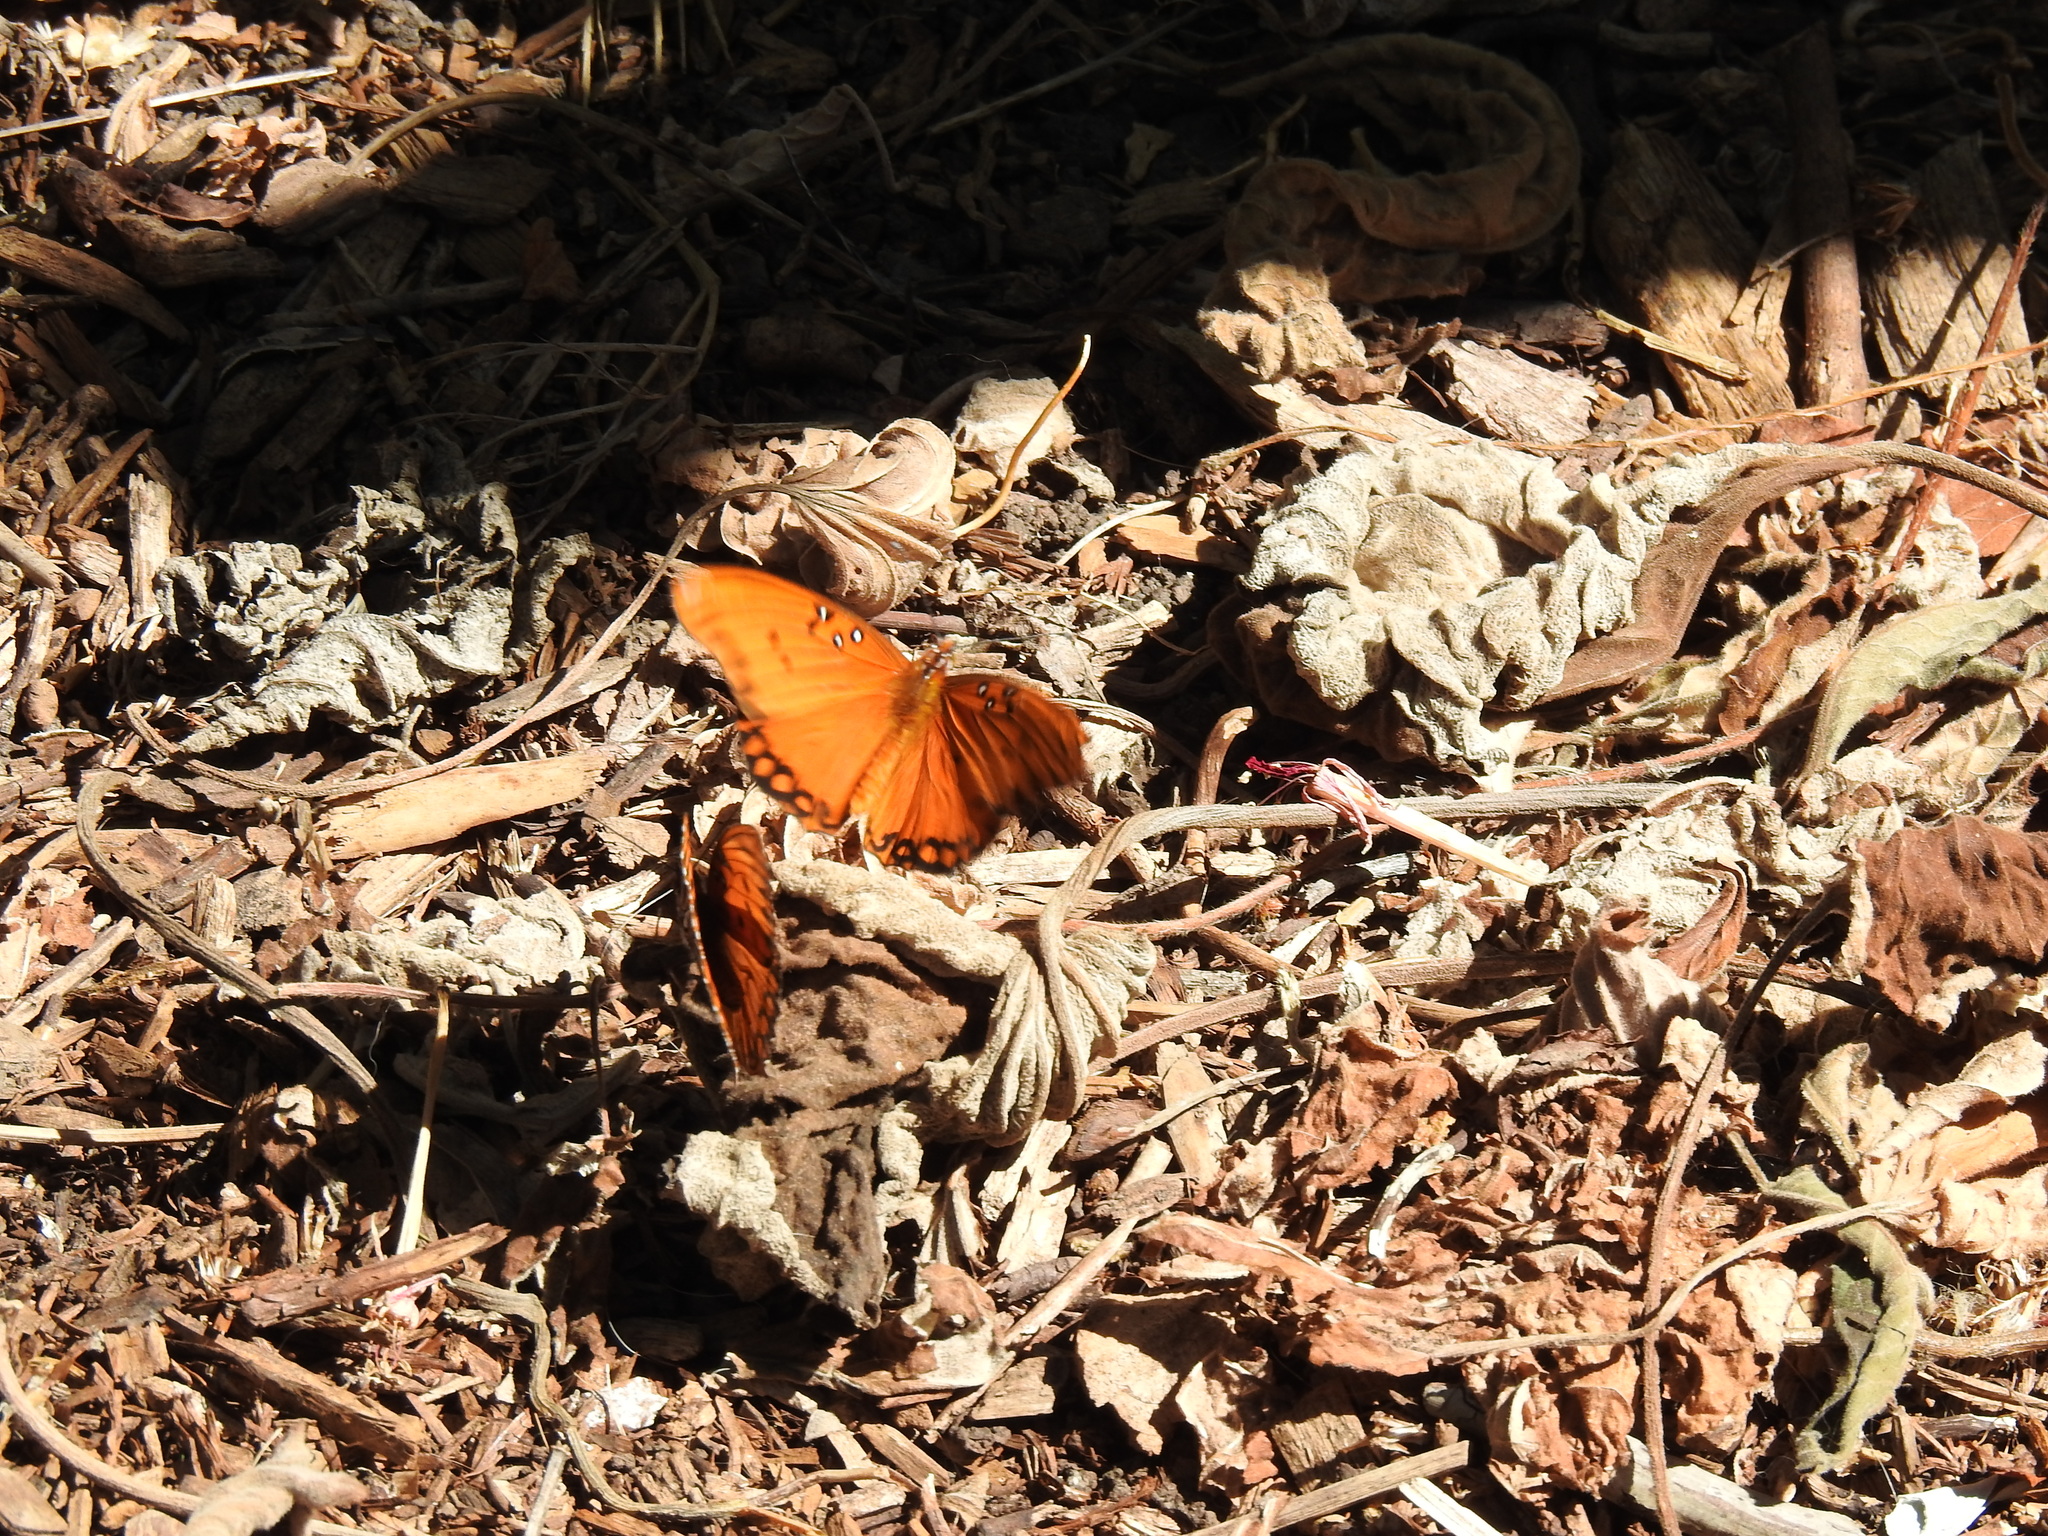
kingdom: Animalia
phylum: Arthropoda
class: Insecta
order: Lepidoptera
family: Nymphalidae
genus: Dione
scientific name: Dione vanillae
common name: Gulf fritillary
